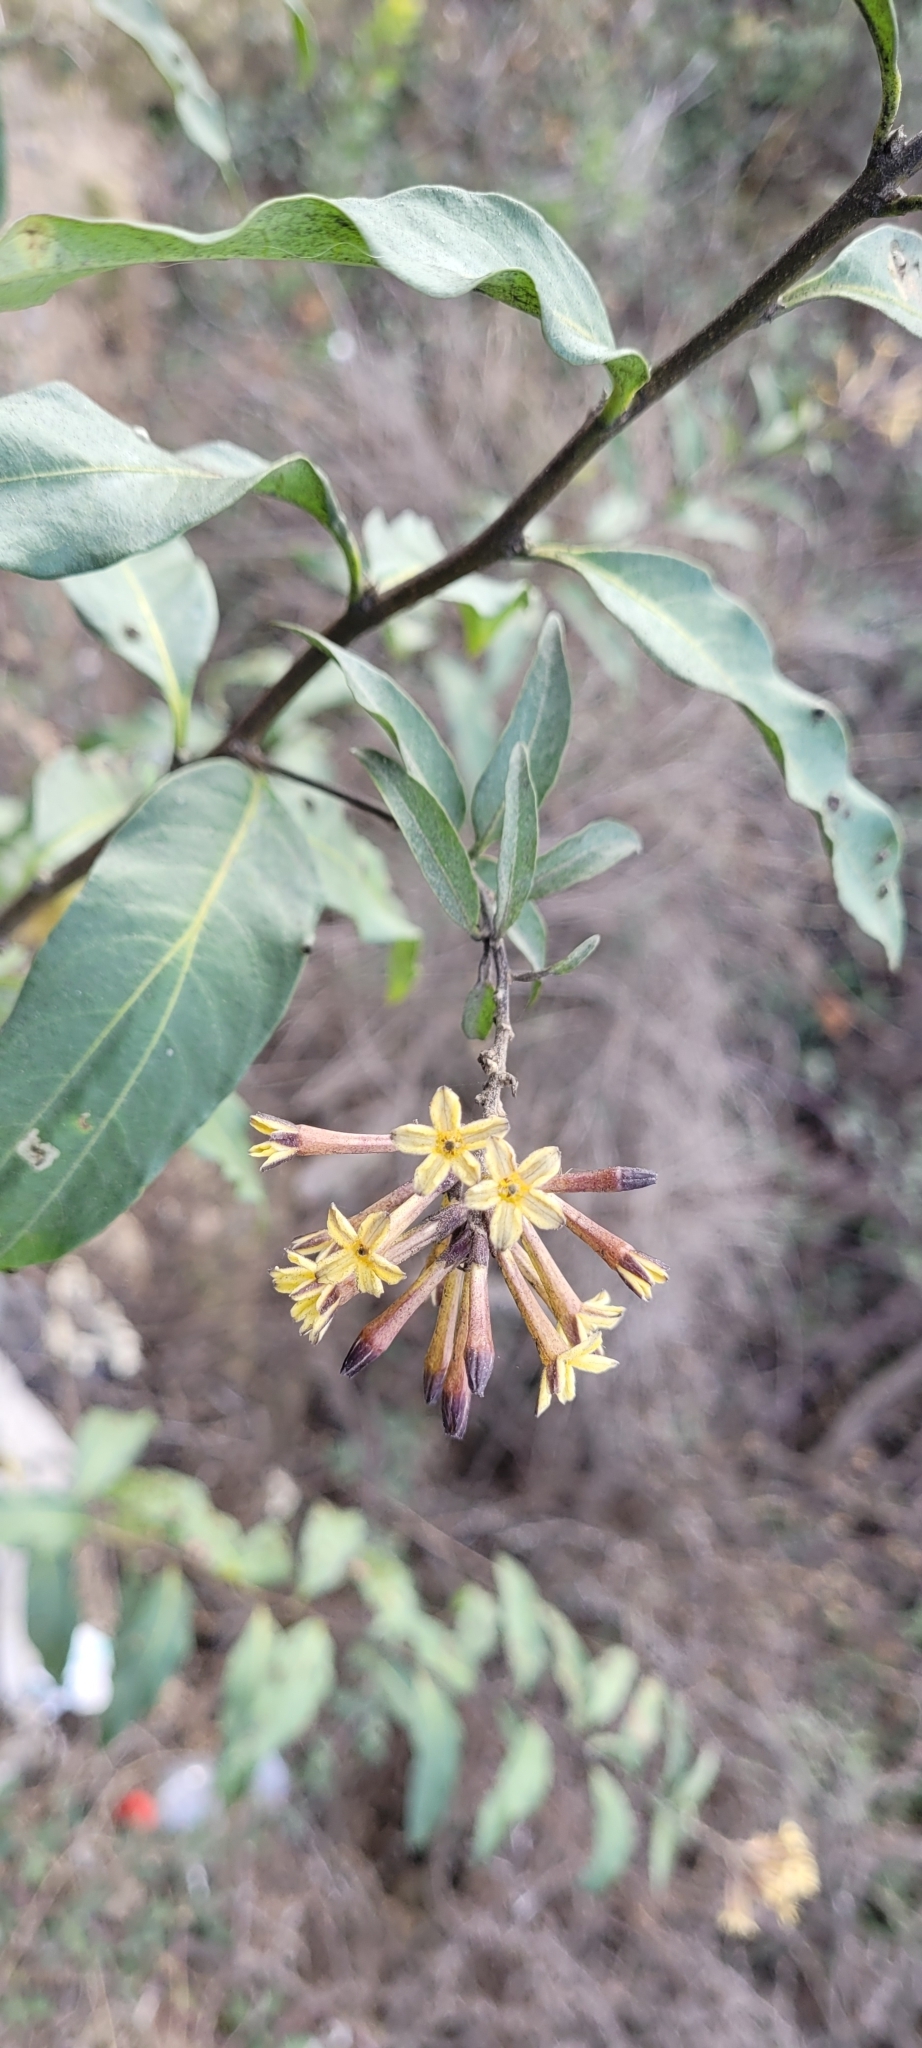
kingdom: Plantae
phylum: Tracheophyta
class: Magnoliopsida
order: Solanales
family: Solanaceae
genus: Cestrum
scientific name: Cestrum parqui
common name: Chilean cestrum
